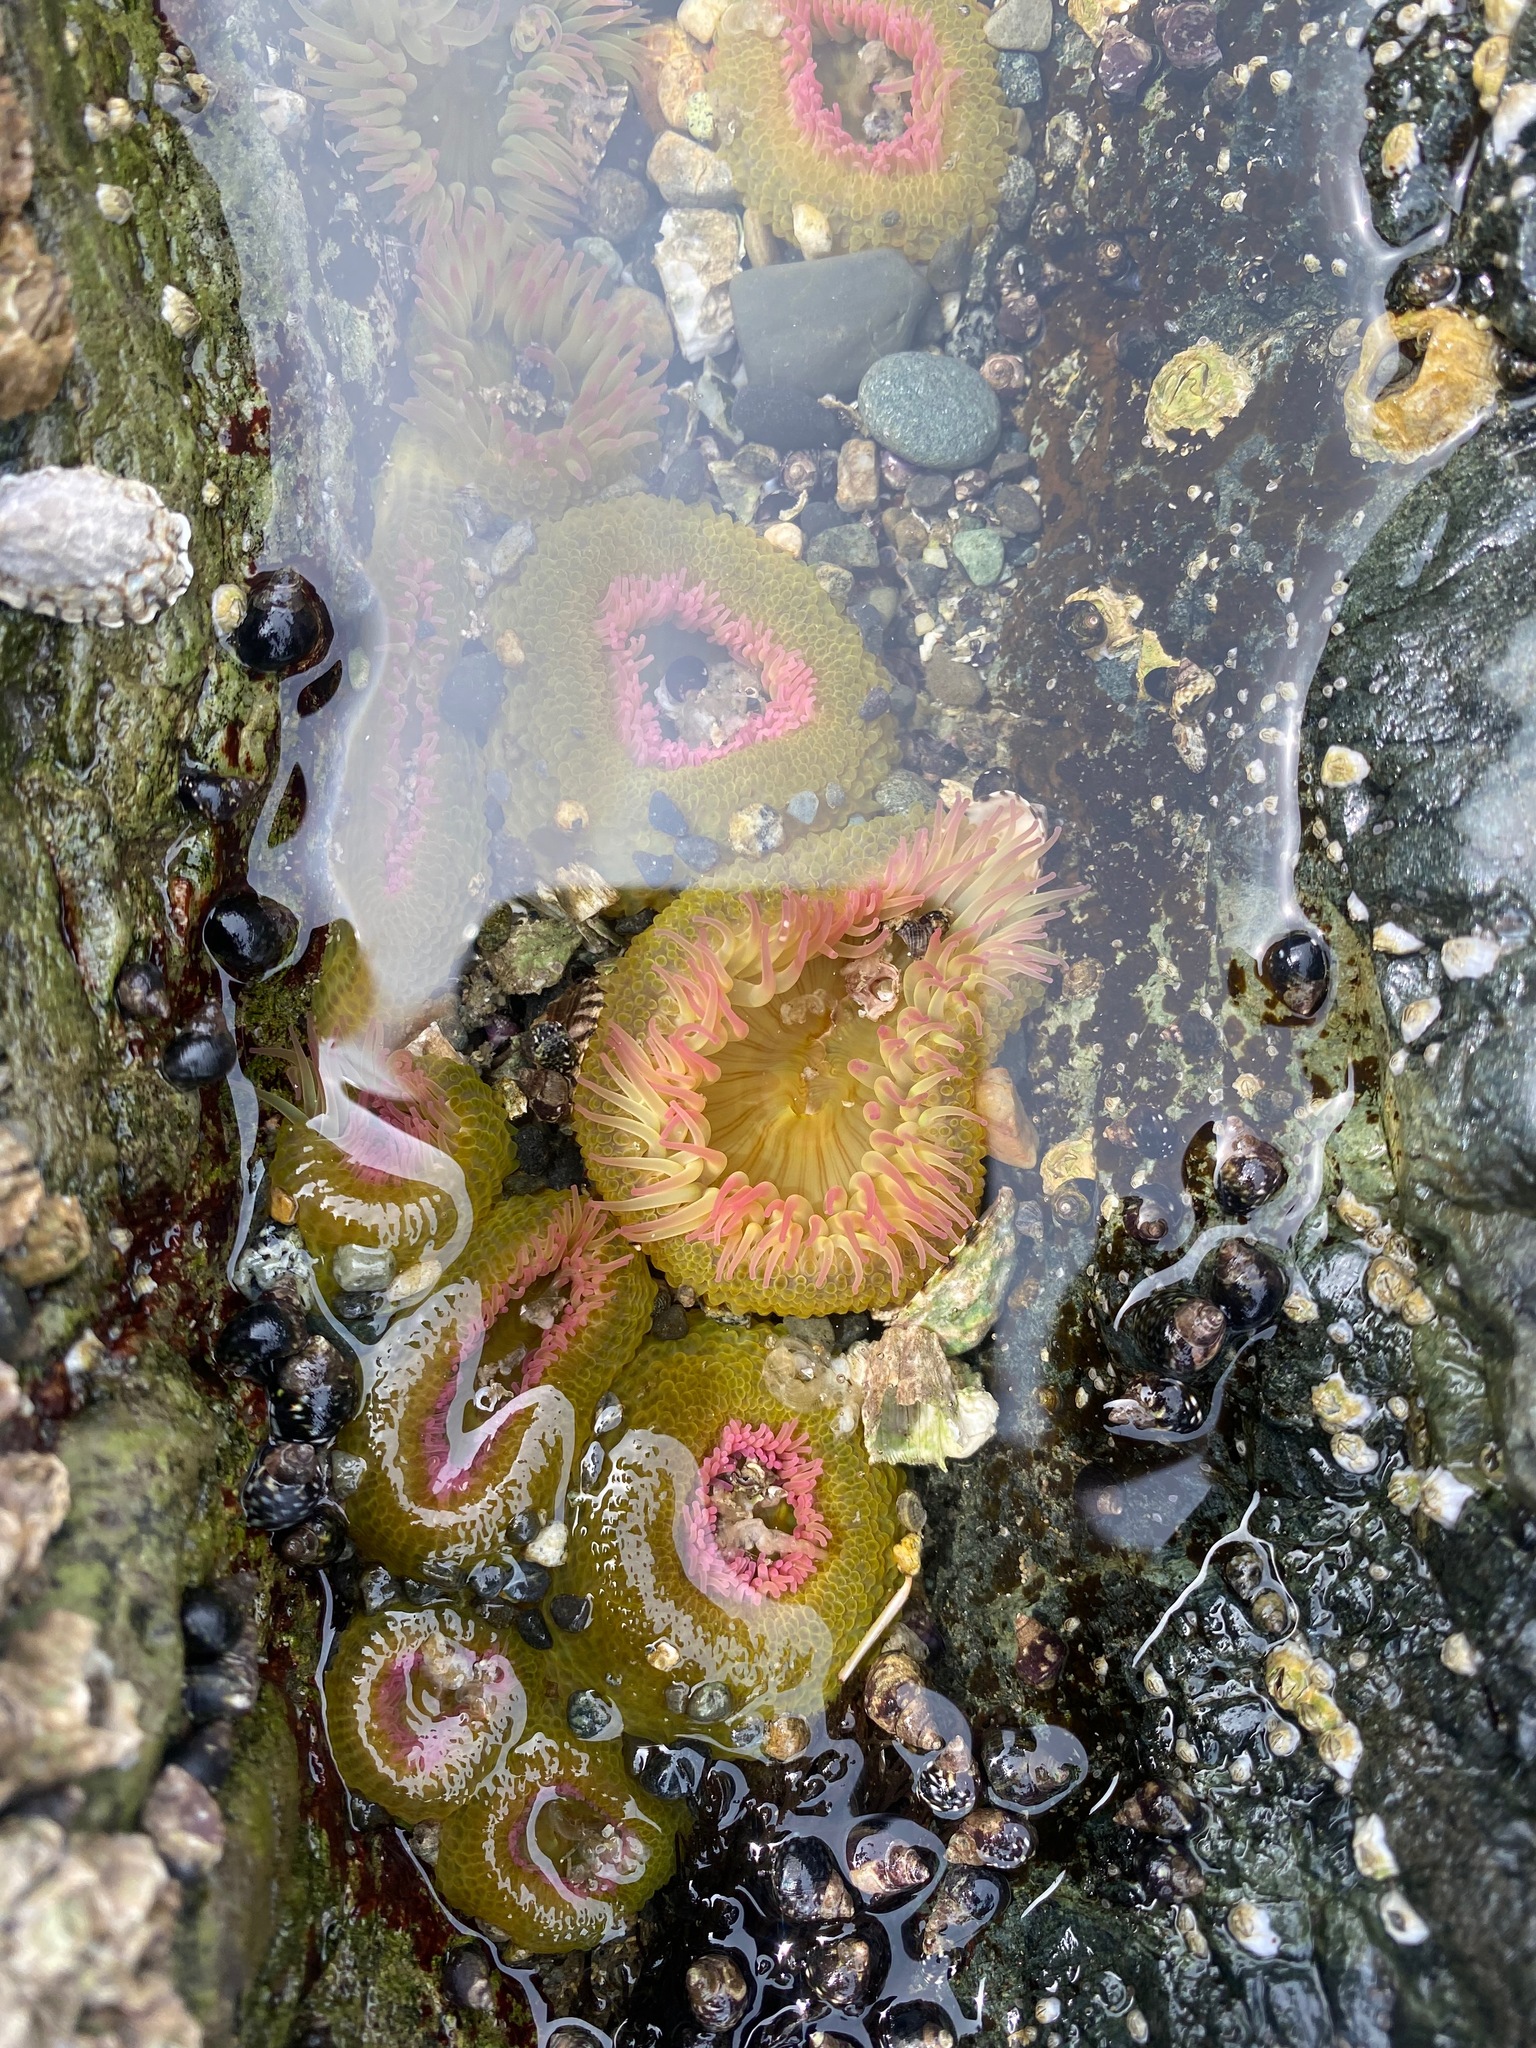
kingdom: Animalia
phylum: Cnidaria
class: Anthozoa
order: Actiniaria
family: Actiniidae
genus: Anthopleura
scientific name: Anthopleura elegantissima
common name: Clonal anemone
